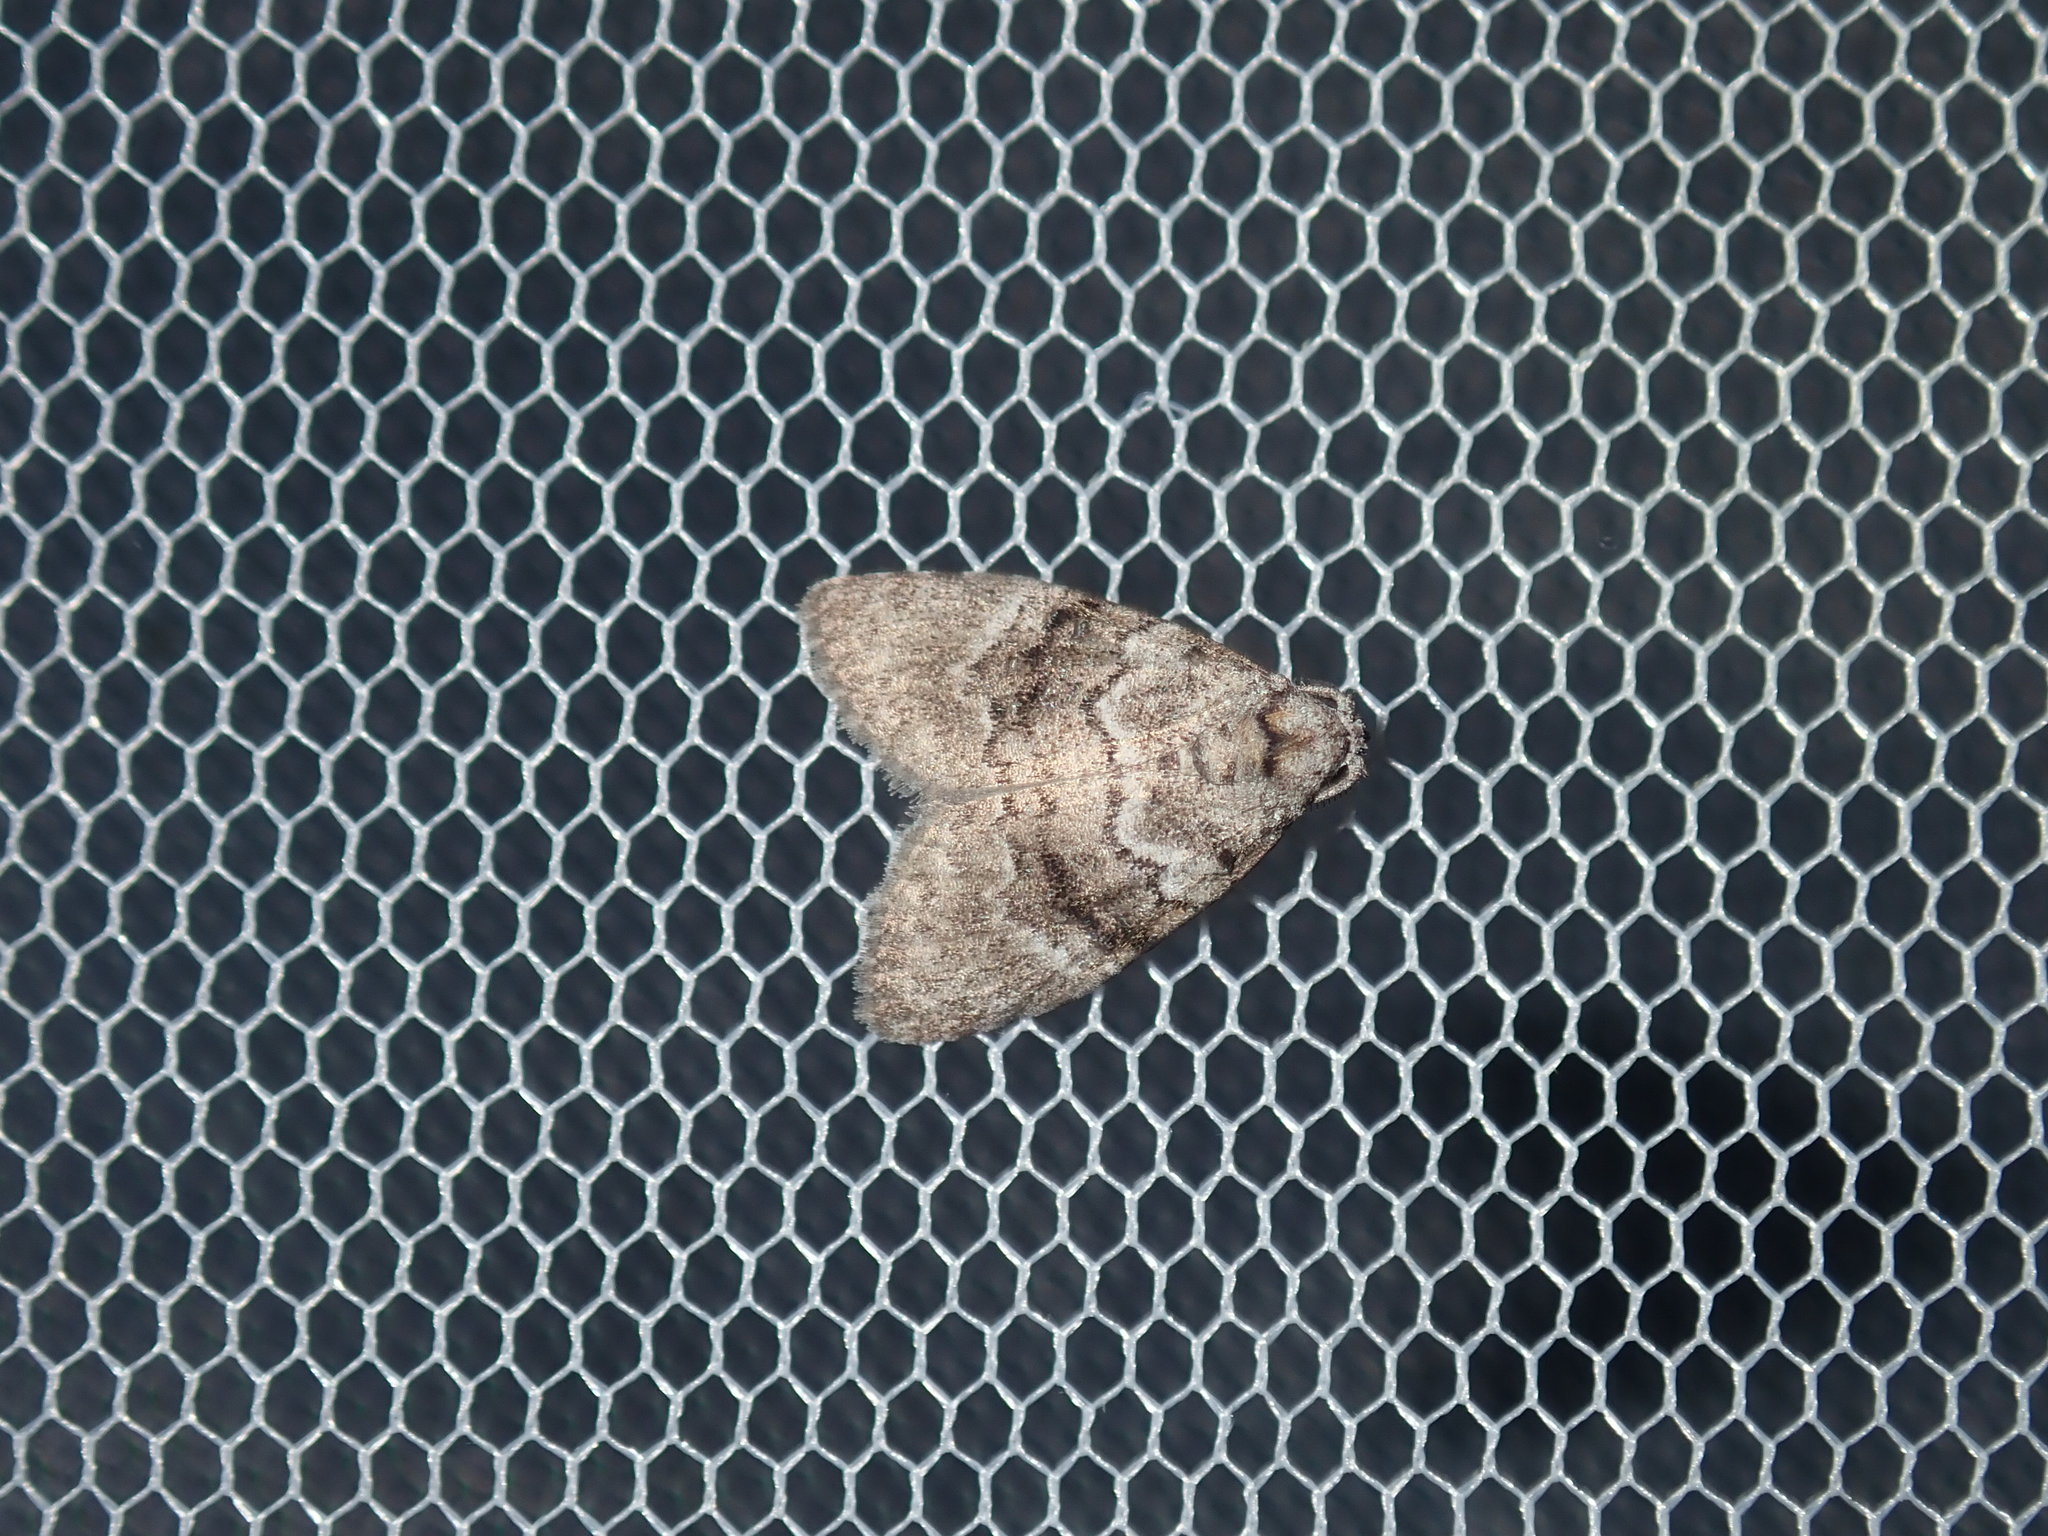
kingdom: Animalia
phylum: Arthropoda
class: Insecta
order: Lepidoptera
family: Nolidae
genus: Uraba
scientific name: Uraba lugens
